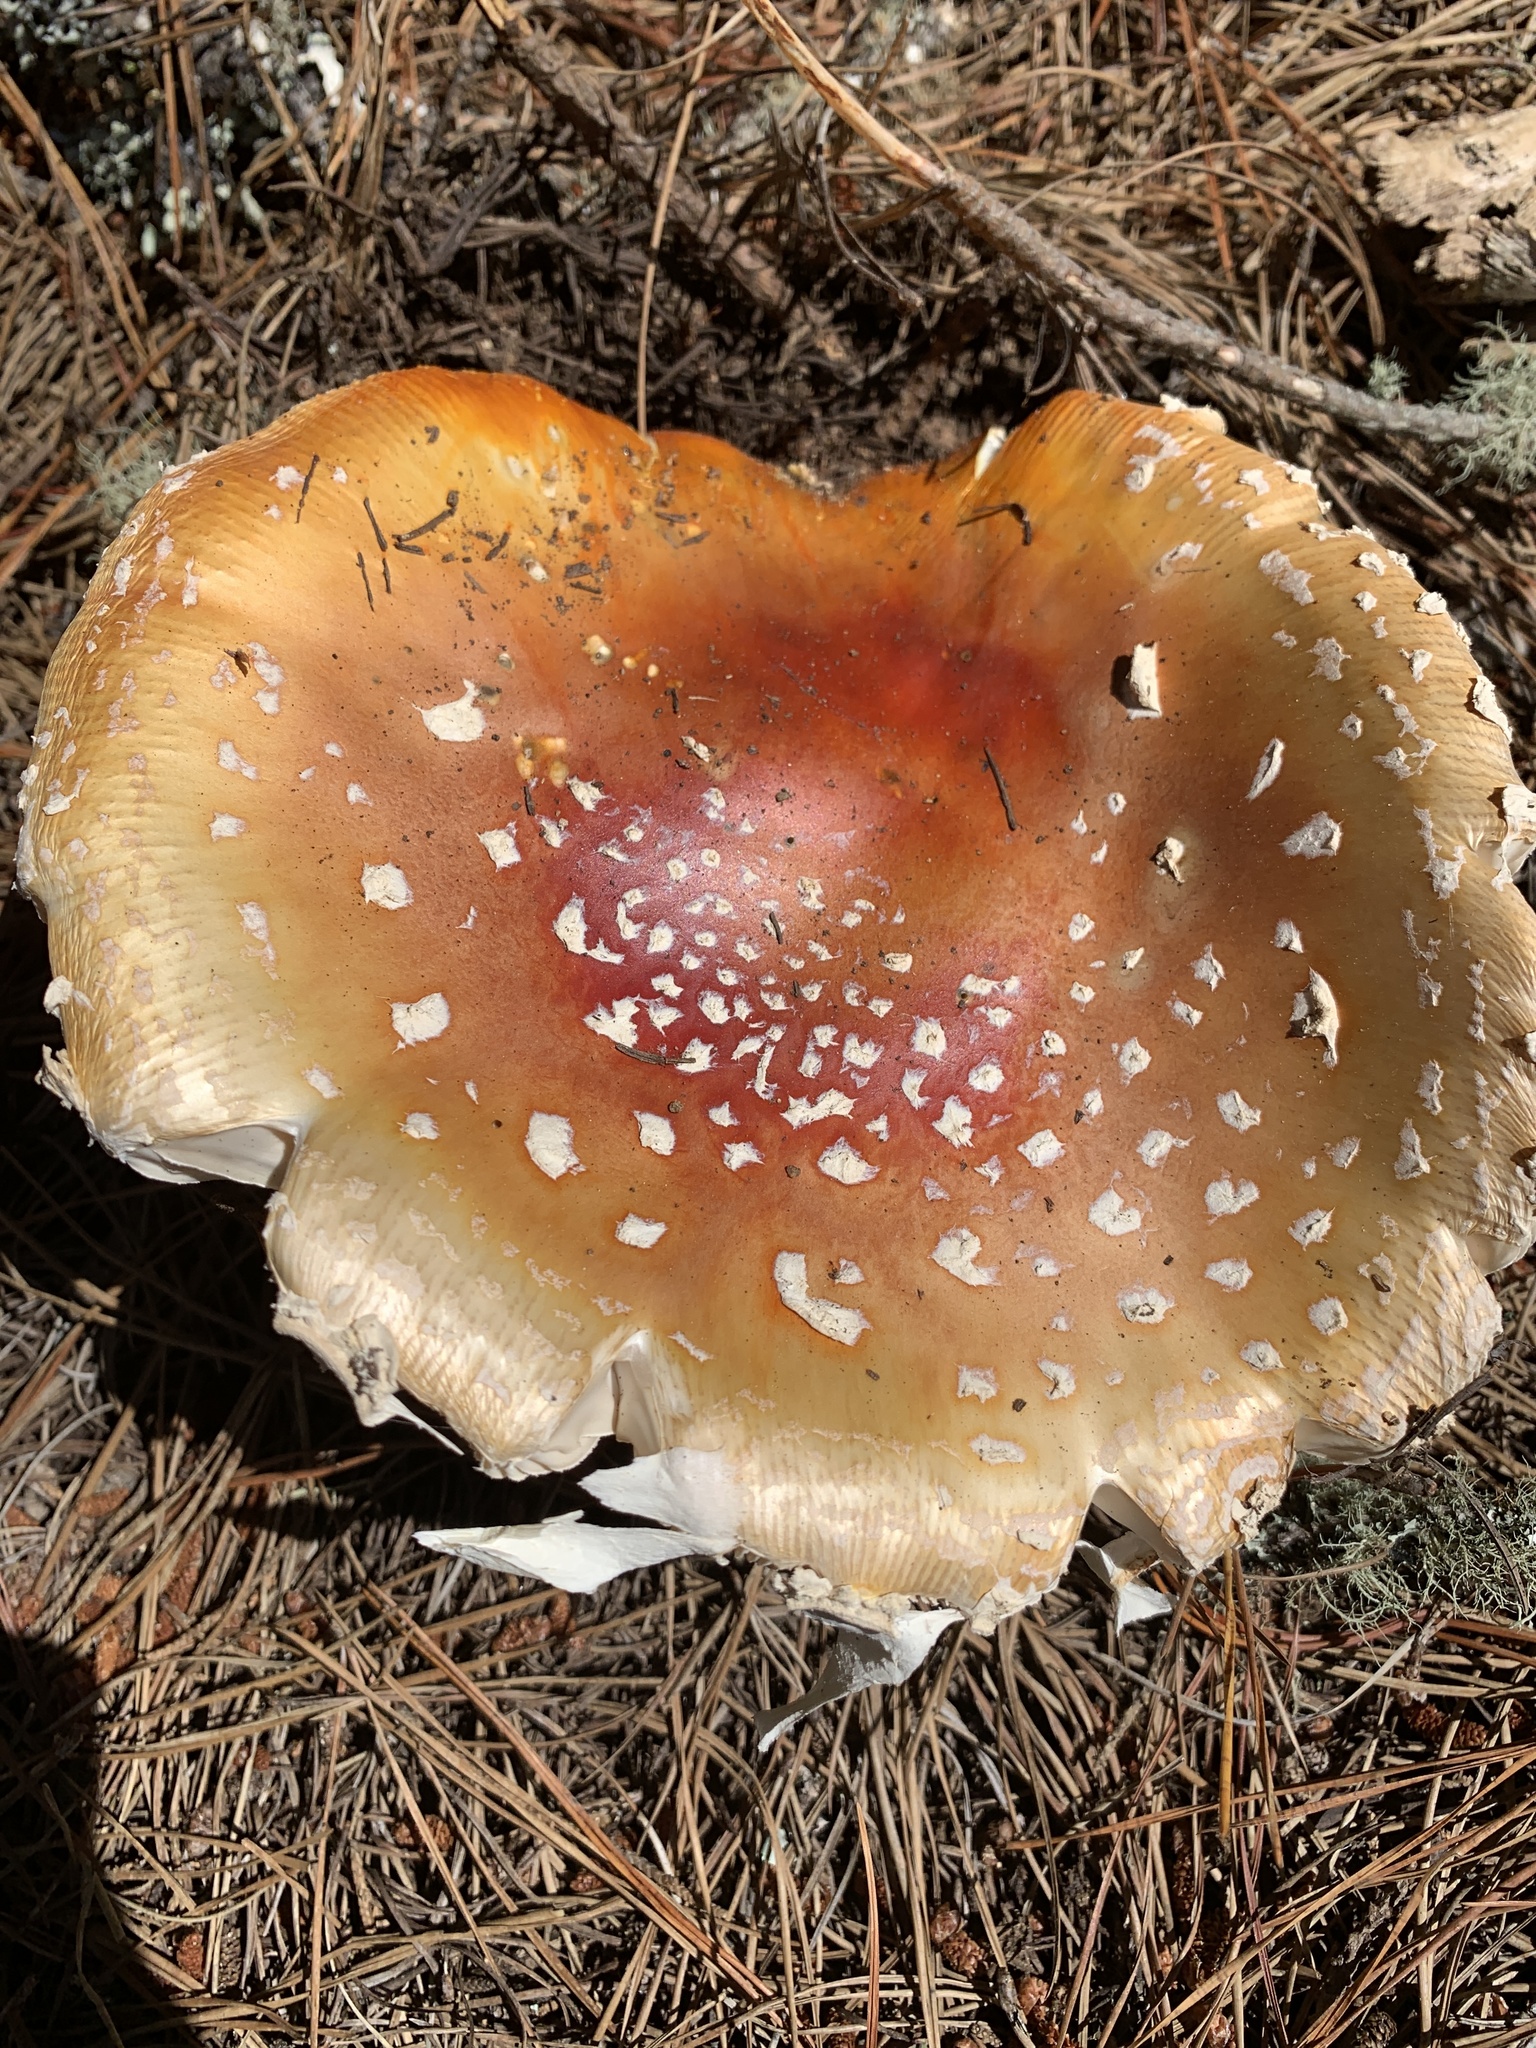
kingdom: Fungi
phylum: Basidiomycota
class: Agaricomycetes
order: Agaricales
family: Amanitaceae
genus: Amanita
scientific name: Amanita muscaria
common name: Fly agaric
